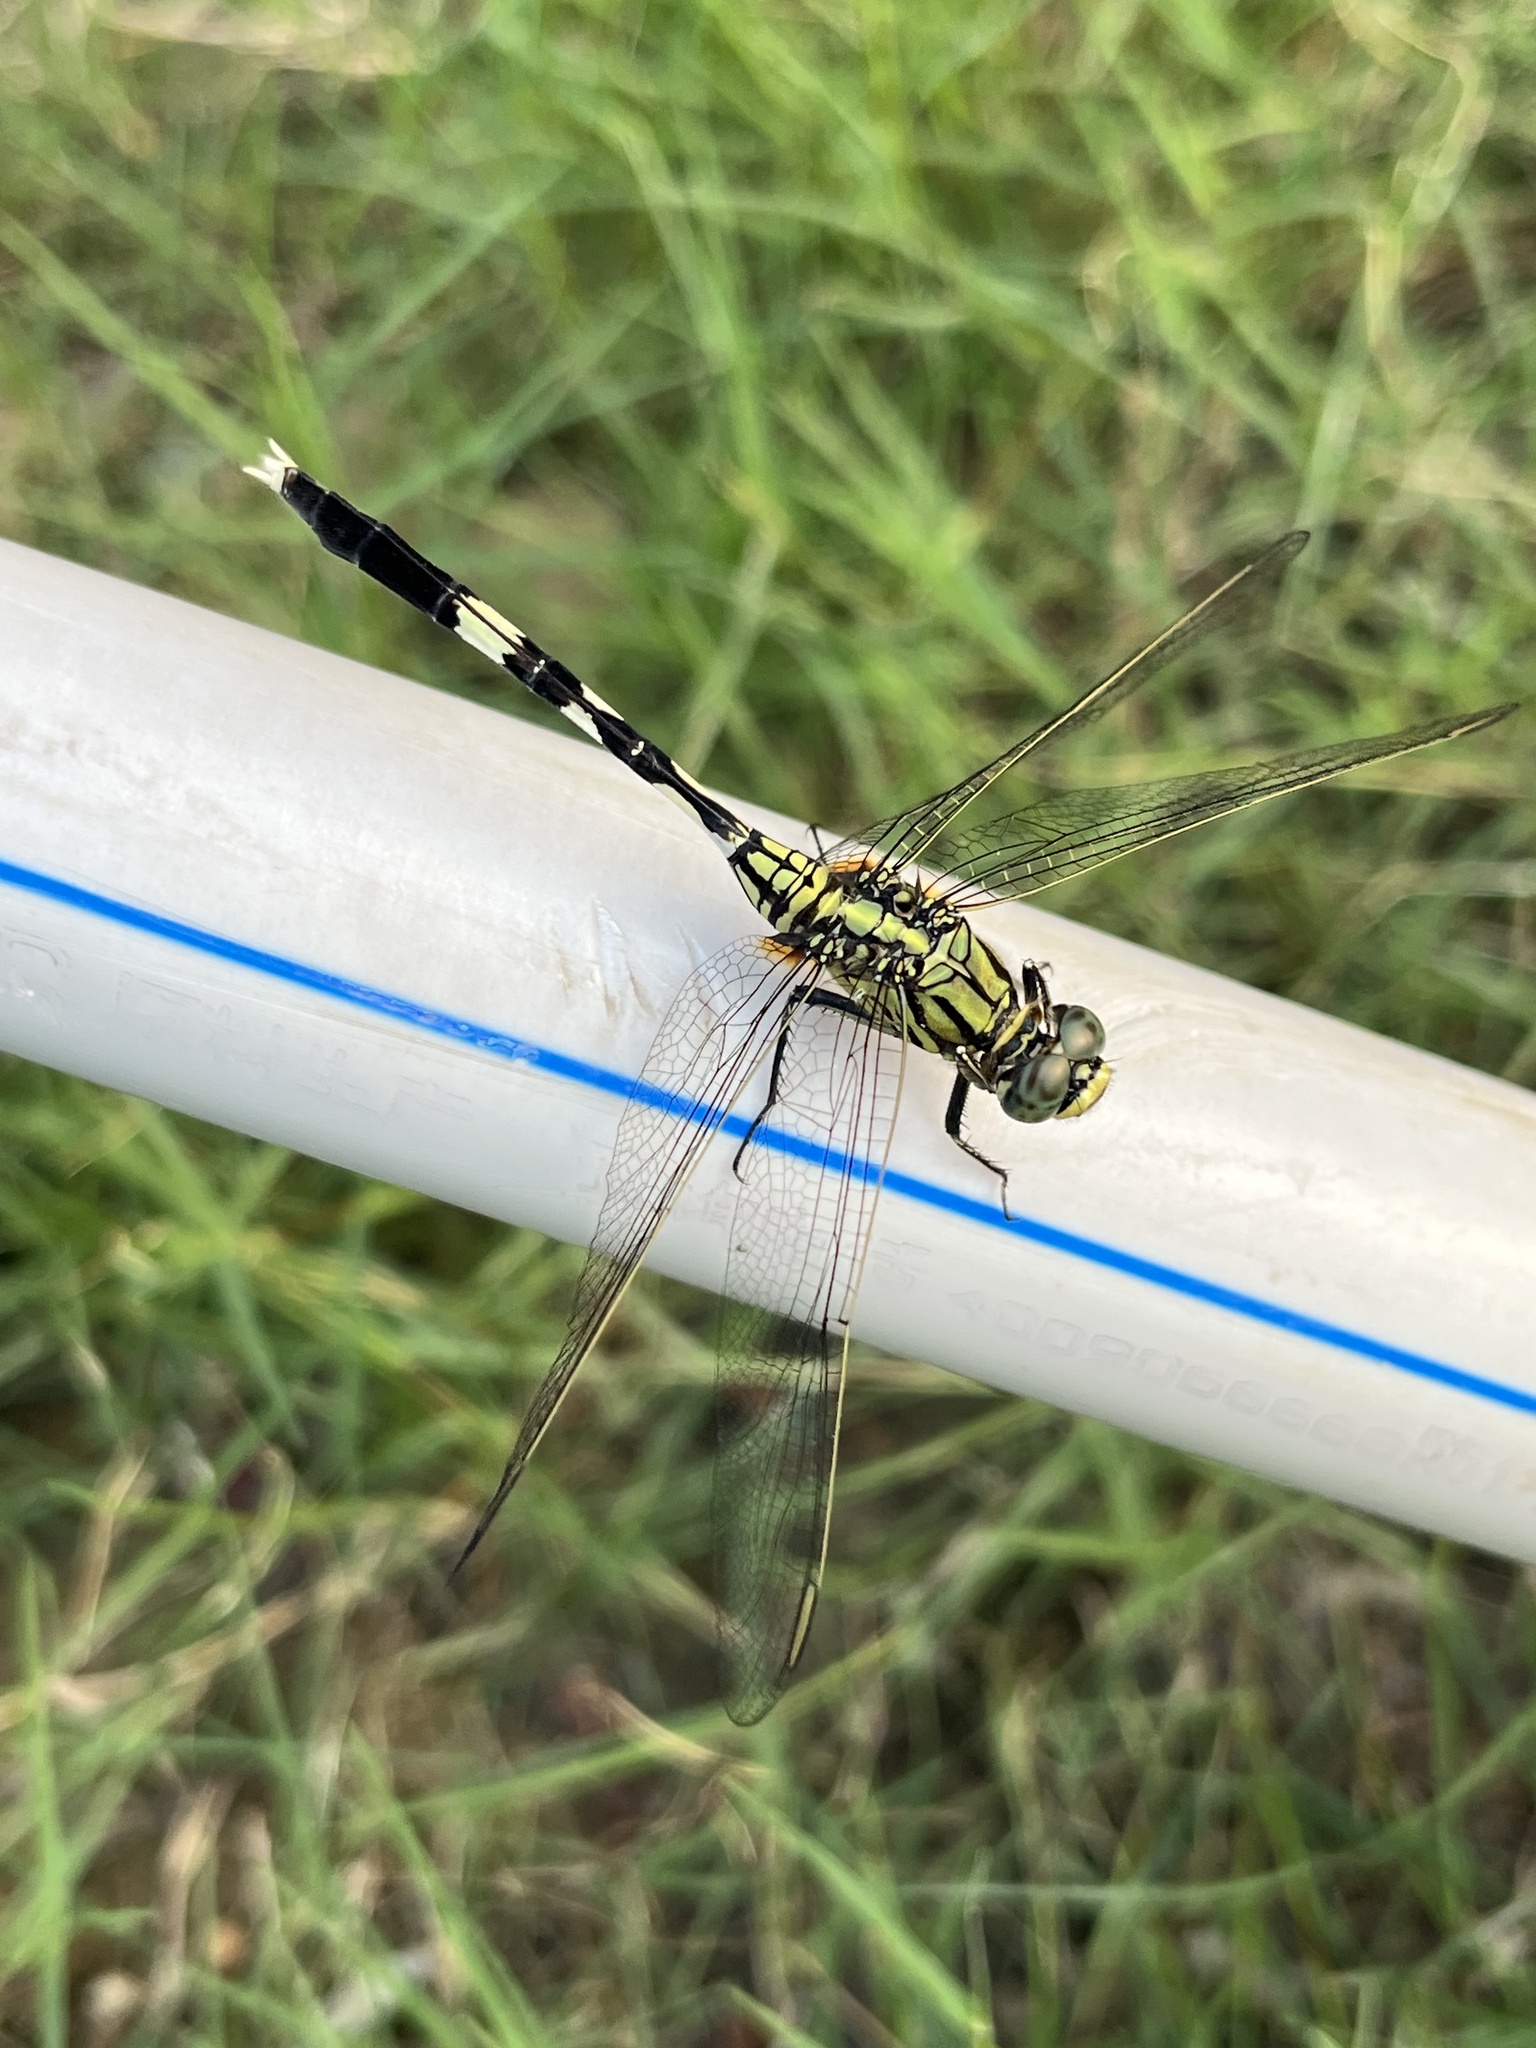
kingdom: Animalia
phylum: Arthropoda
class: Insecta
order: Odonata
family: Libellulidae
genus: Orthetrum
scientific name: Orthetrum sabina
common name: Slender skimmer
